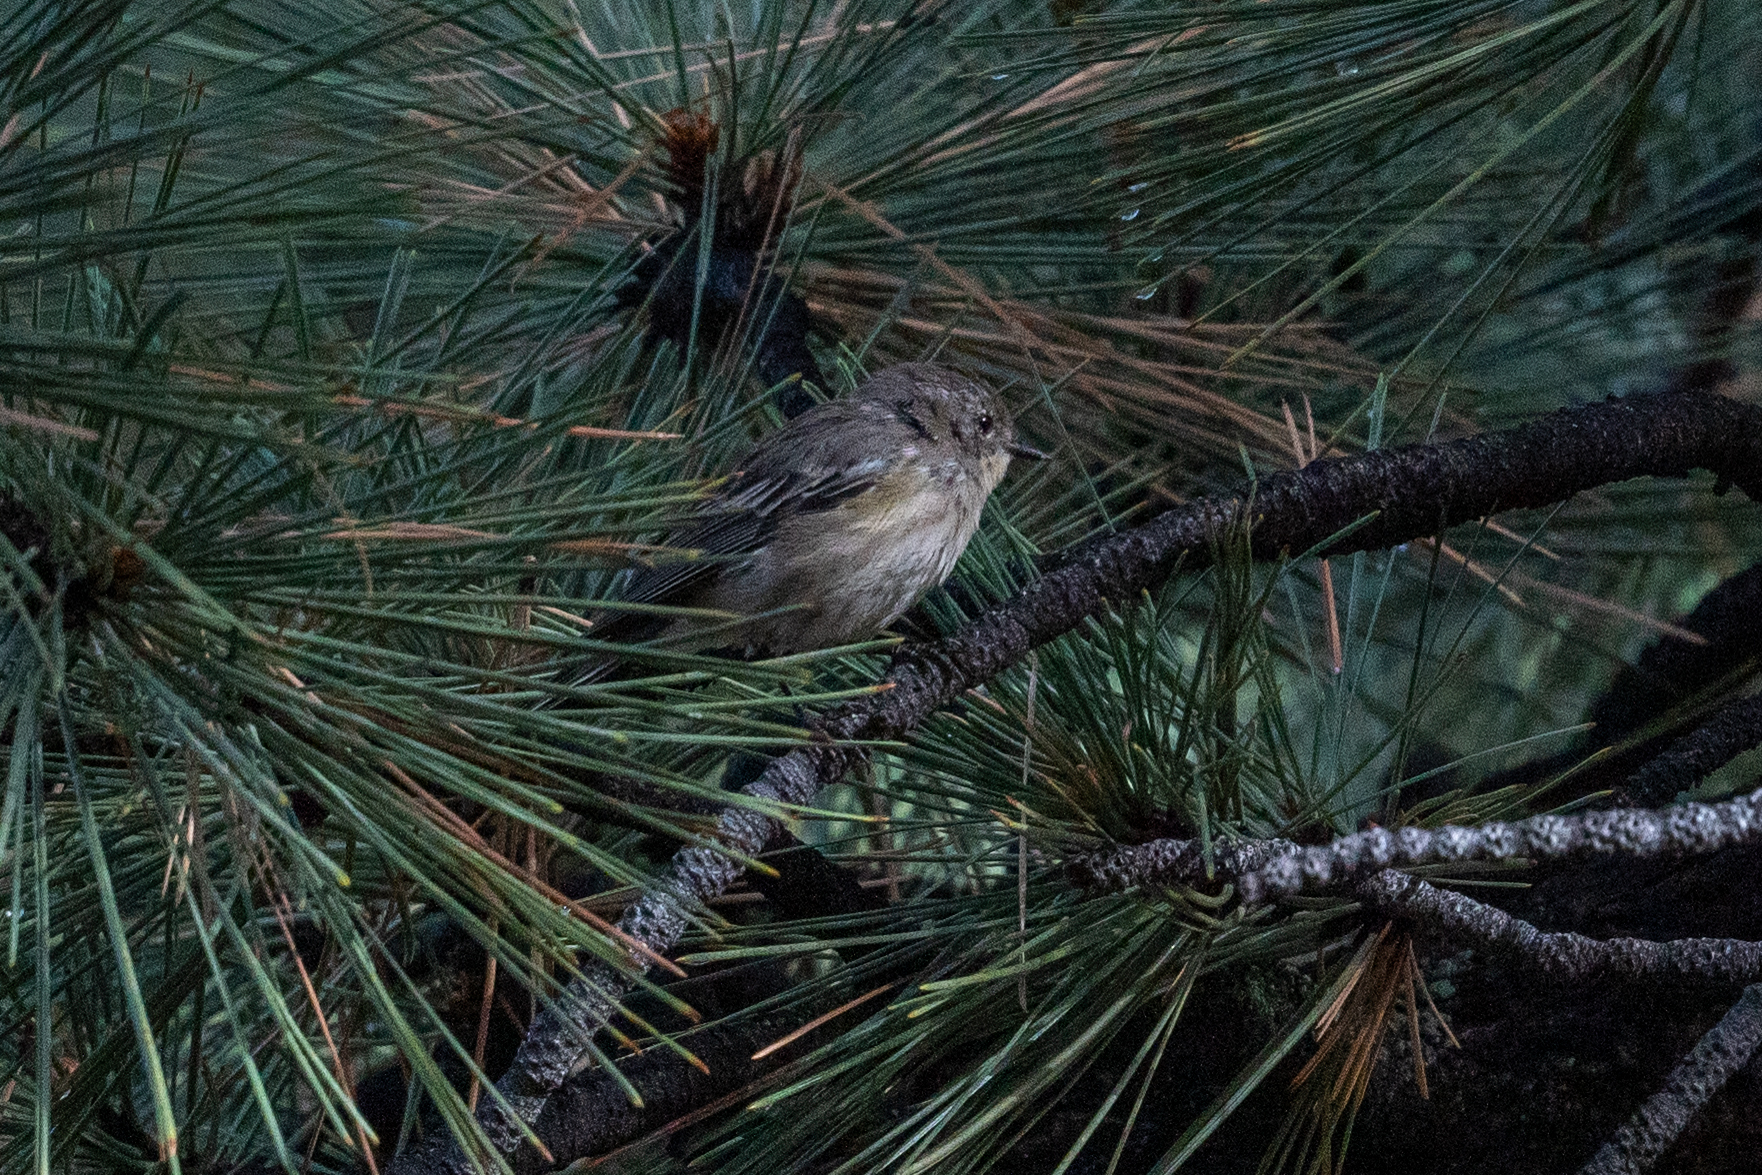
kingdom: Animalia
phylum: Chordata
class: Aves
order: Passeriformes
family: Parulidae
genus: Setophaga
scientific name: Setophaga coronata
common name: Myrtle warbler
